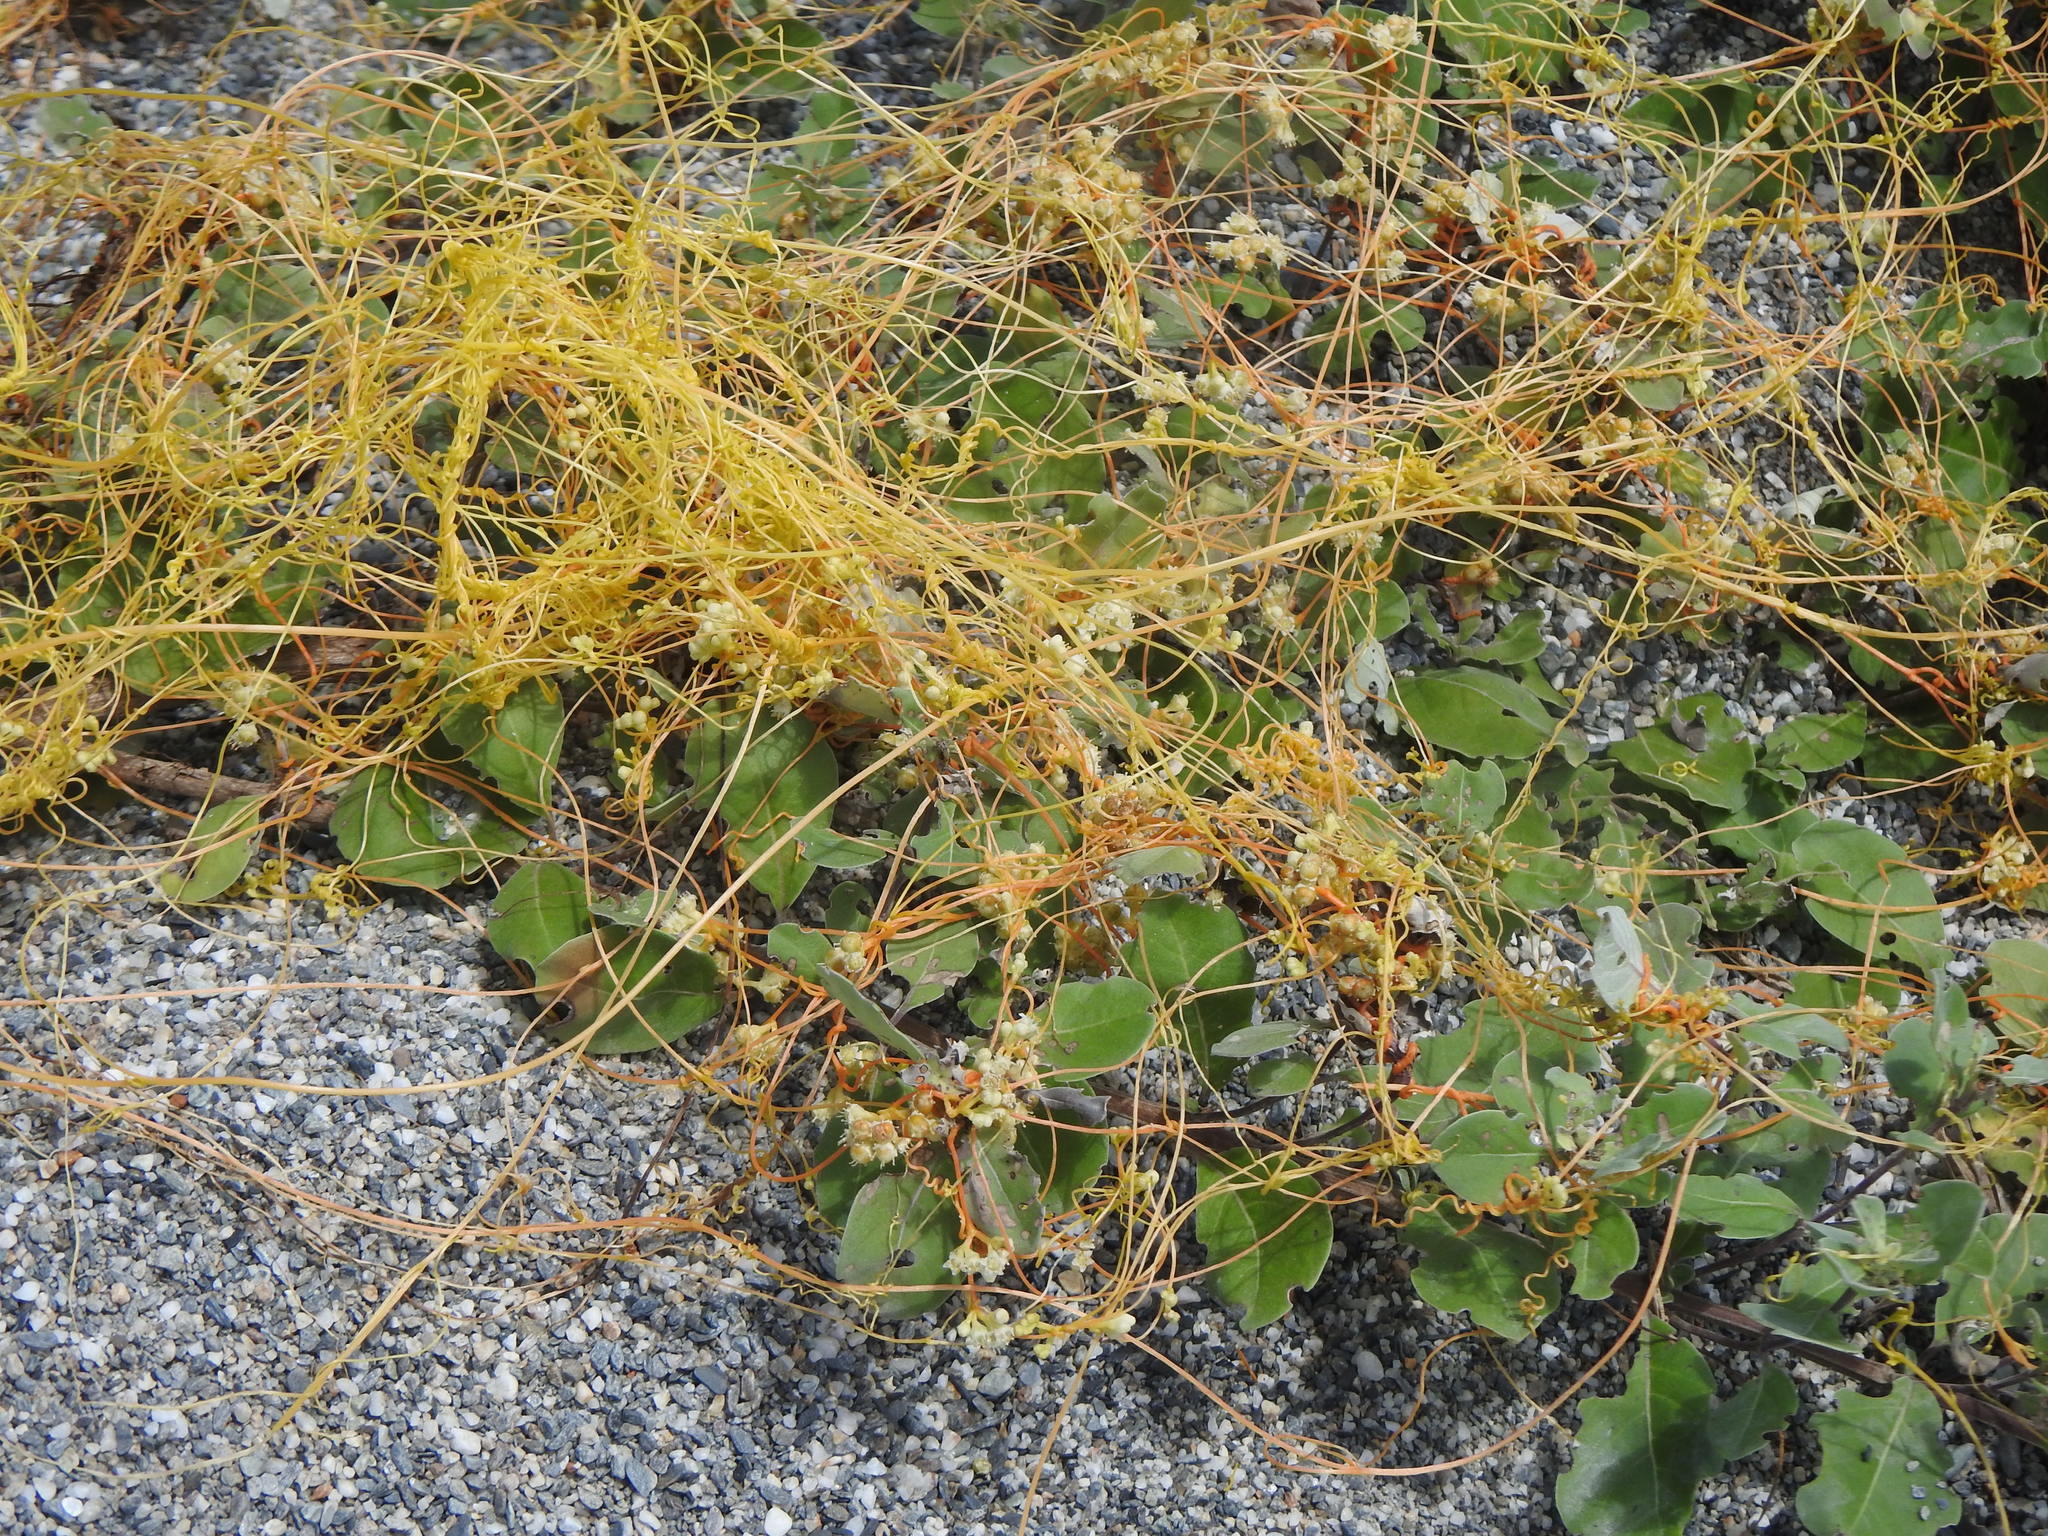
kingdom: Plantae
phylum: Tracheophyta
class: Magnoliopsida
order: Solanales
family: Convolvulaceae
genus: Cuscuta
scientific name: Cuscuta campestris
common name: Yellow dodder
